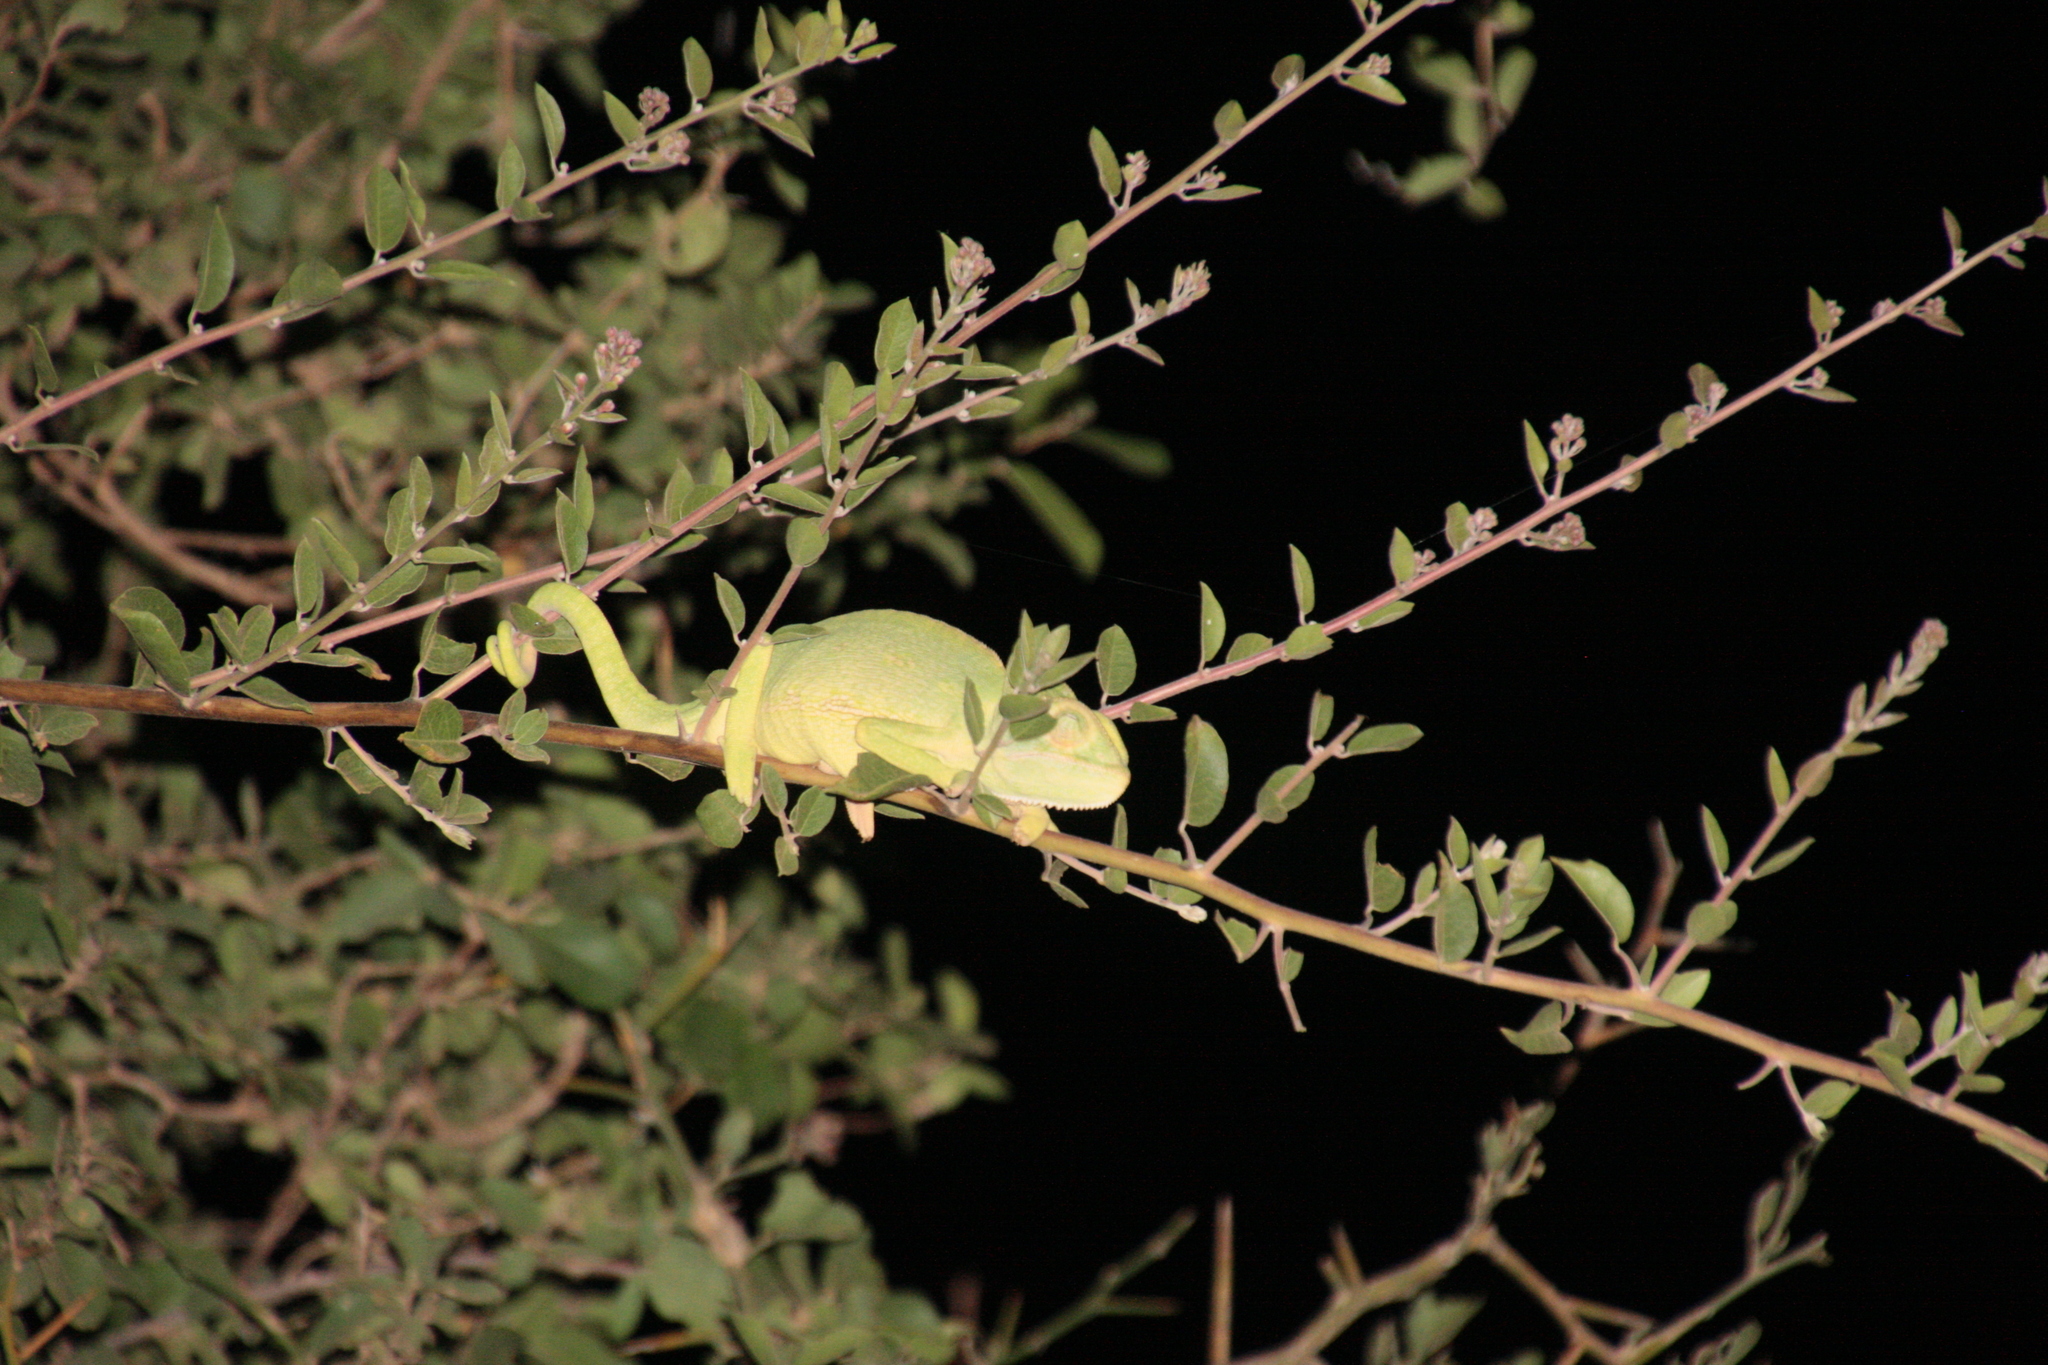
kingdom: Animalia
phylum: Chordata
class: Squamata
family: Chamaeleonidae
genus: Chamaeleo
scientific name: Chamaeleo africanus
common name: African chameleon
